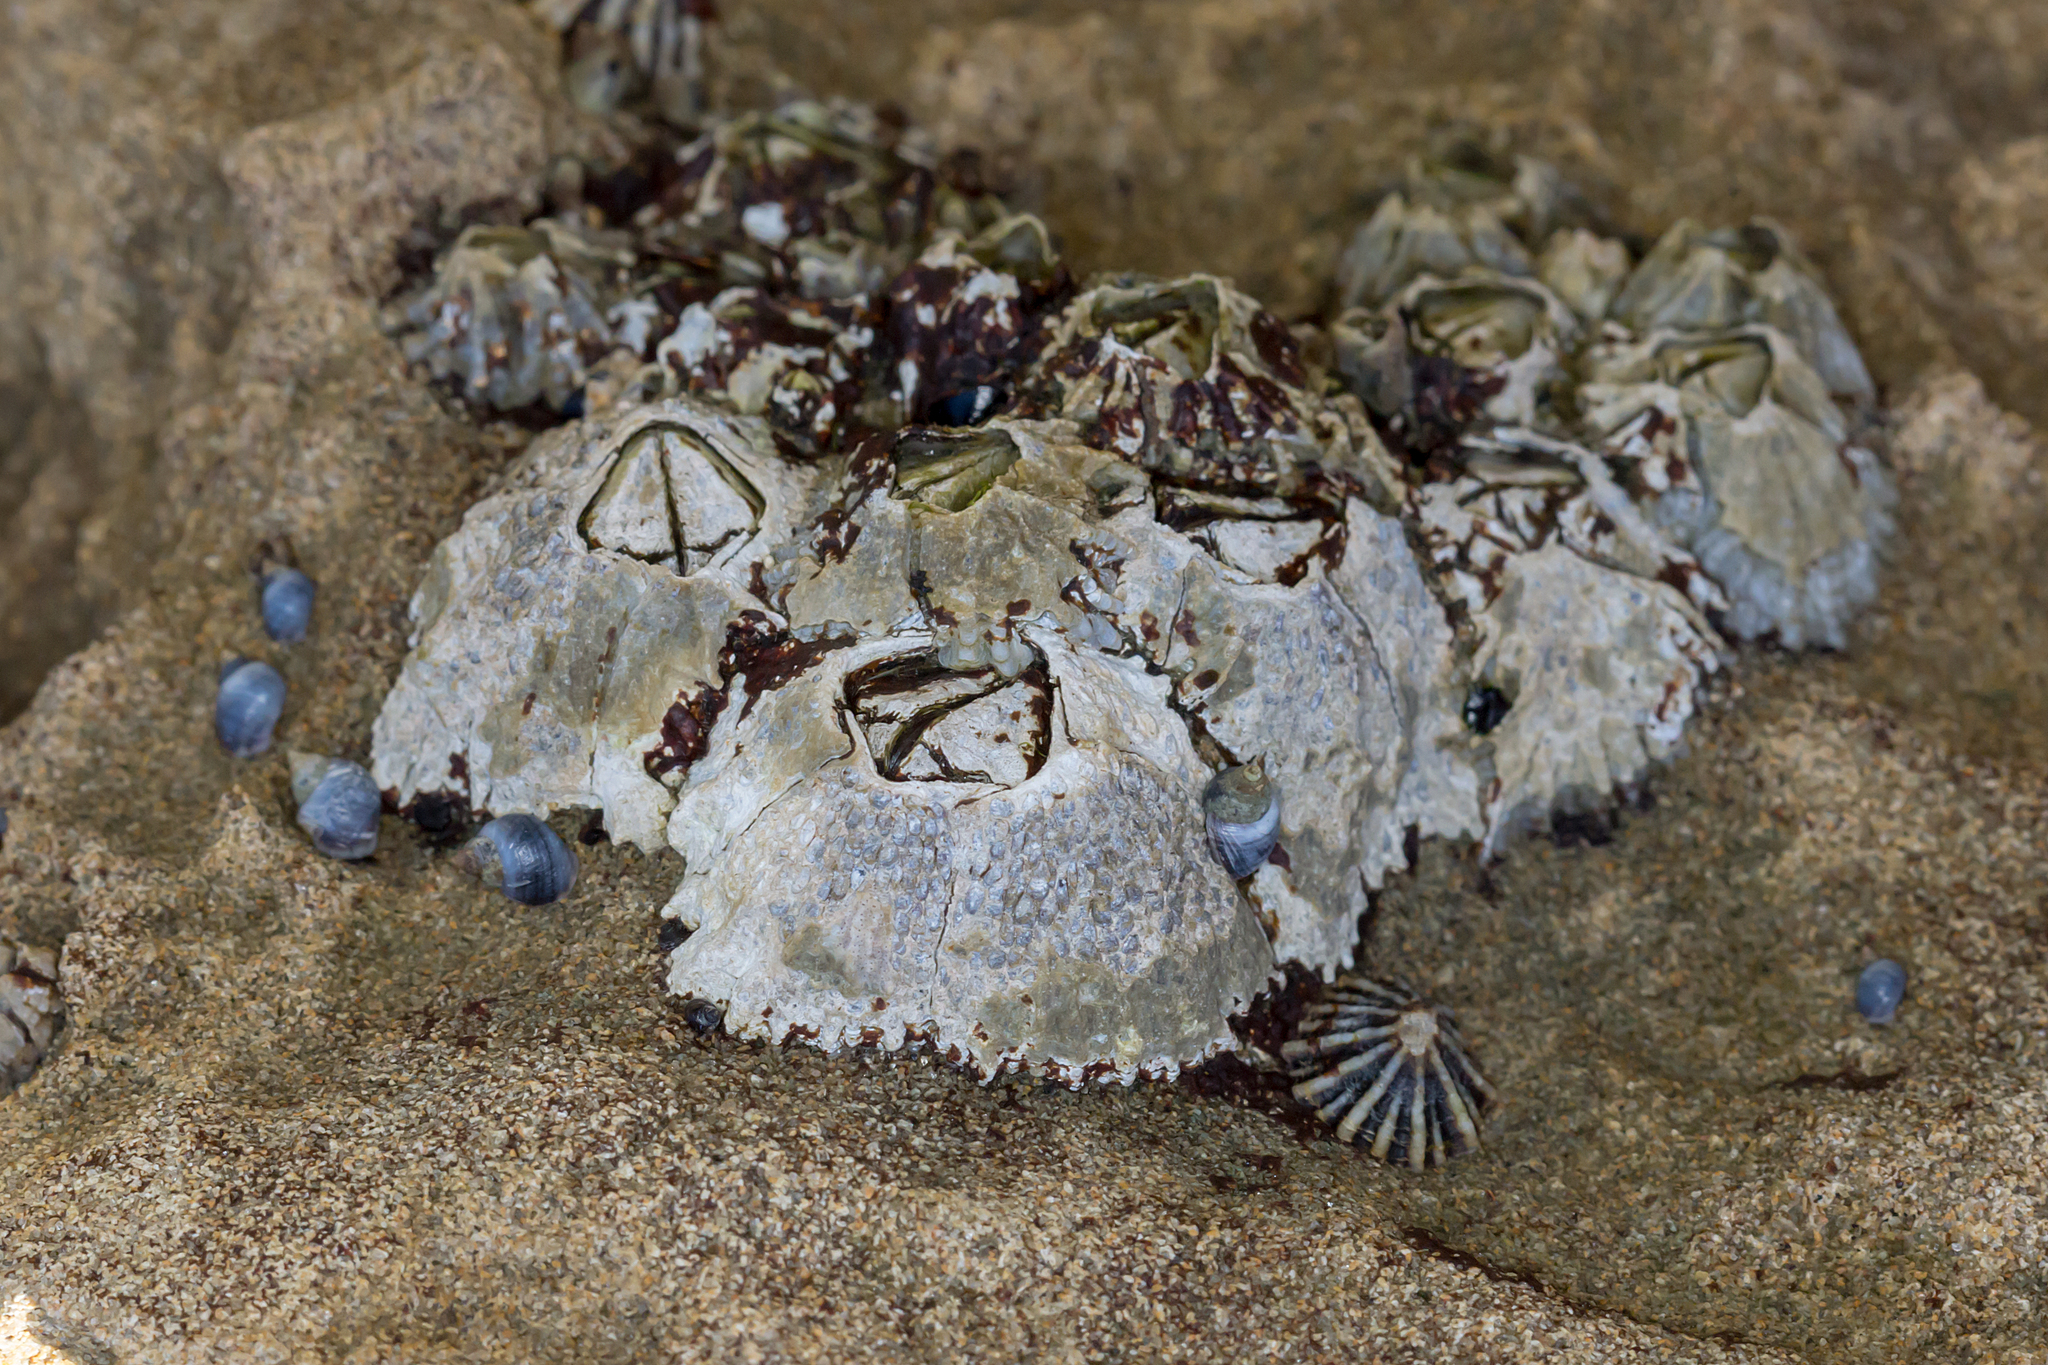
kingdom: Animalia
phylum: Arthropoda
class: Maxillopoda
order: Sessilia
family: Tetraclitidae
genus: Tetraclitella
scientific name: Tetraclitella purpurascens
